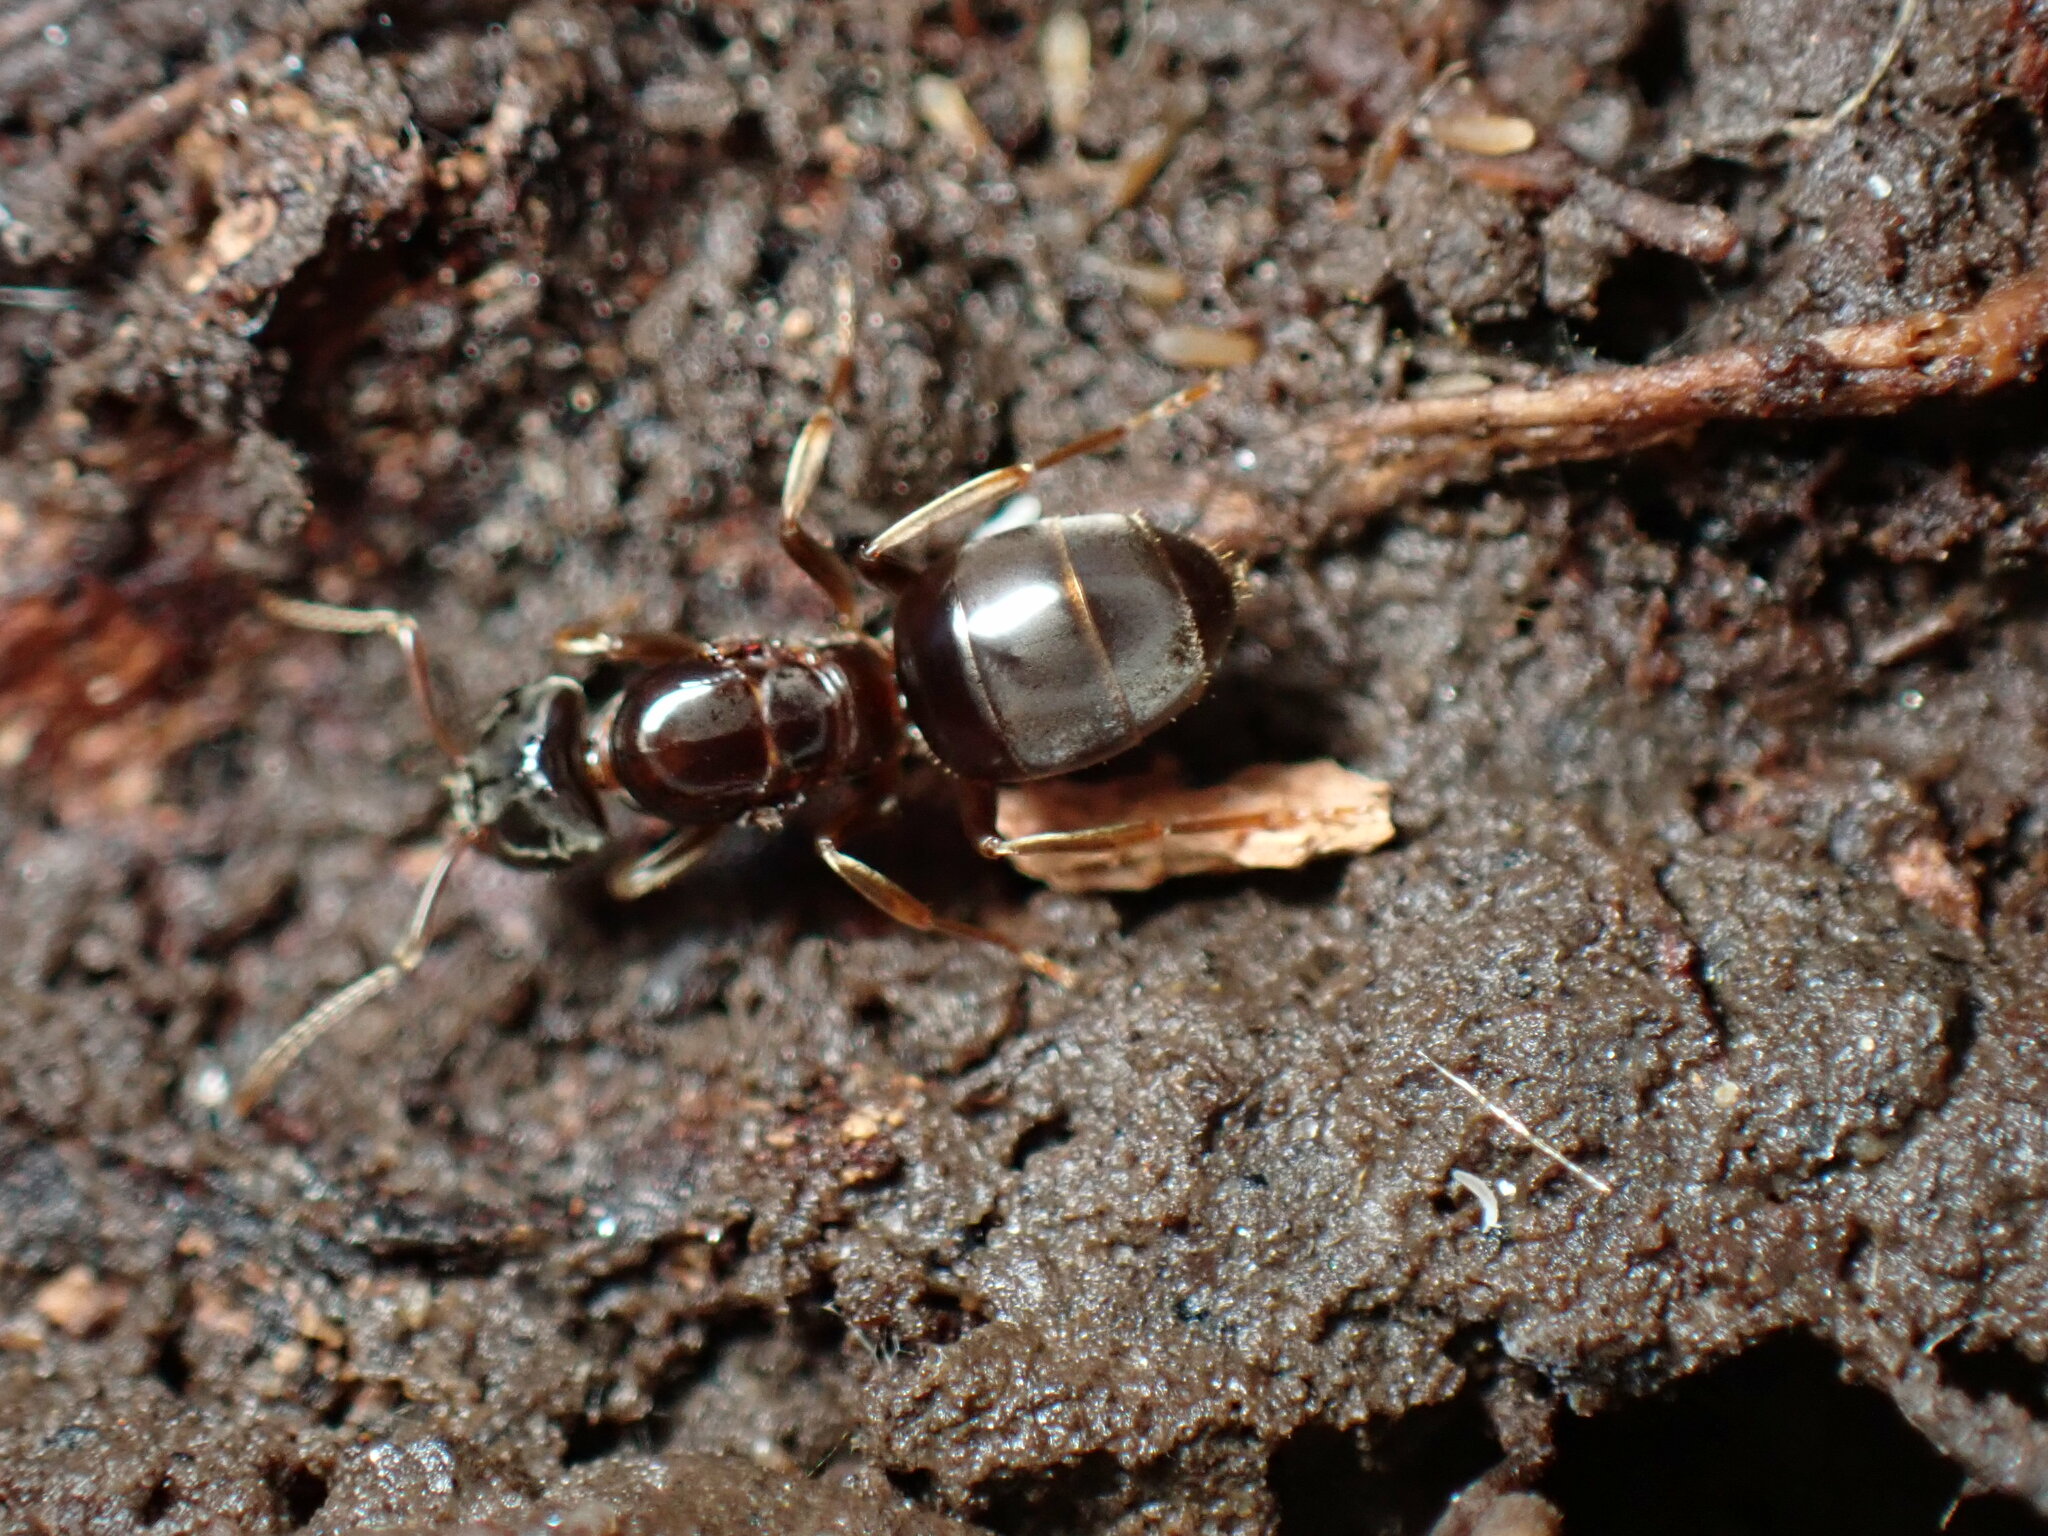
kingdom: Animalia
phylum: Arthropoda
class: Insecta
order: Hymenoptera
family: Formicidae
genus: Lasius
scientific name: Lasius aphidicola
